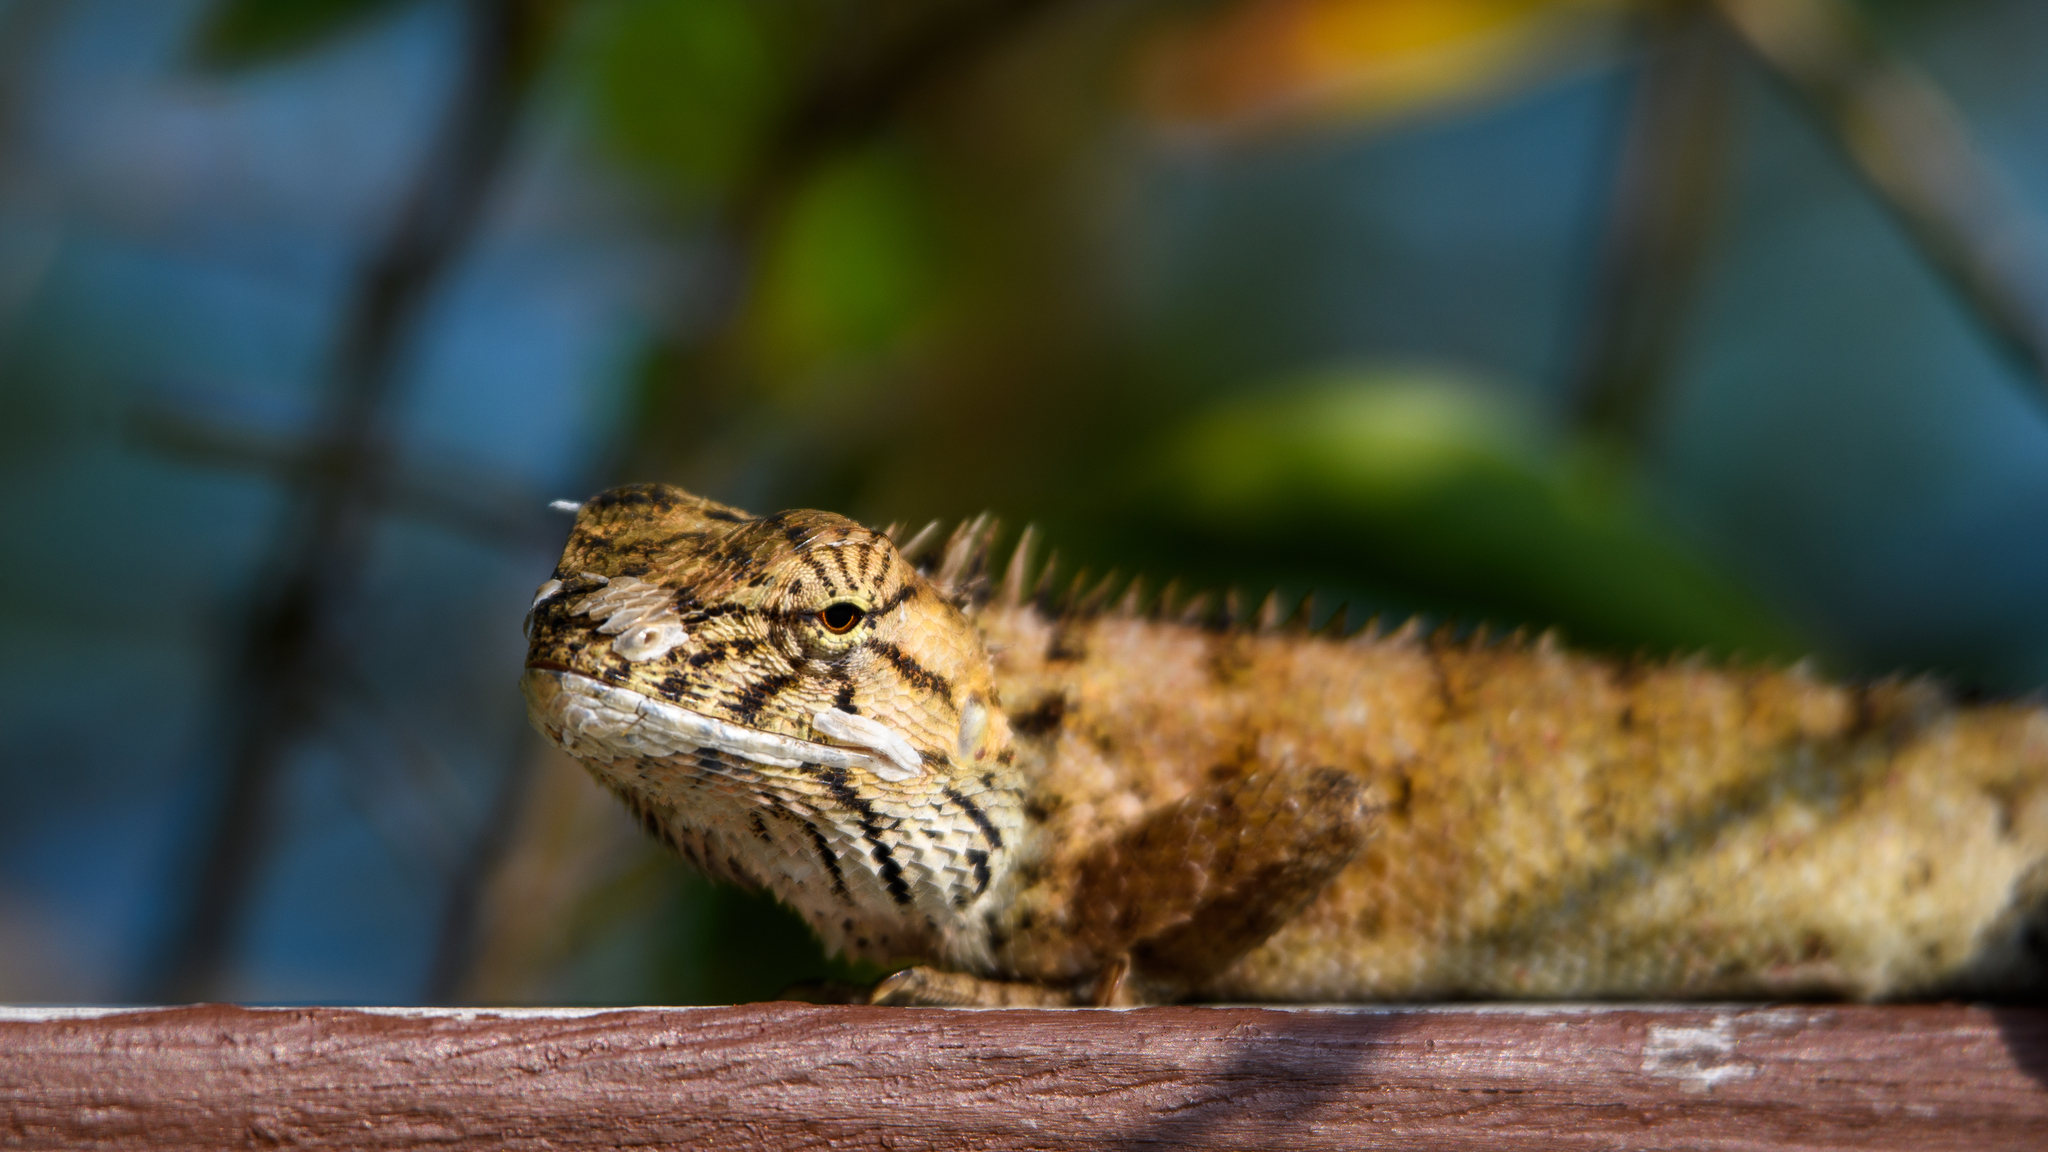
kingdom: Animalia
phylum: Chordata
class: Squamata
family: Agamidae
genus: Calotes
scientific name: Calotes versicolor
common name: Oriental garden lizard
